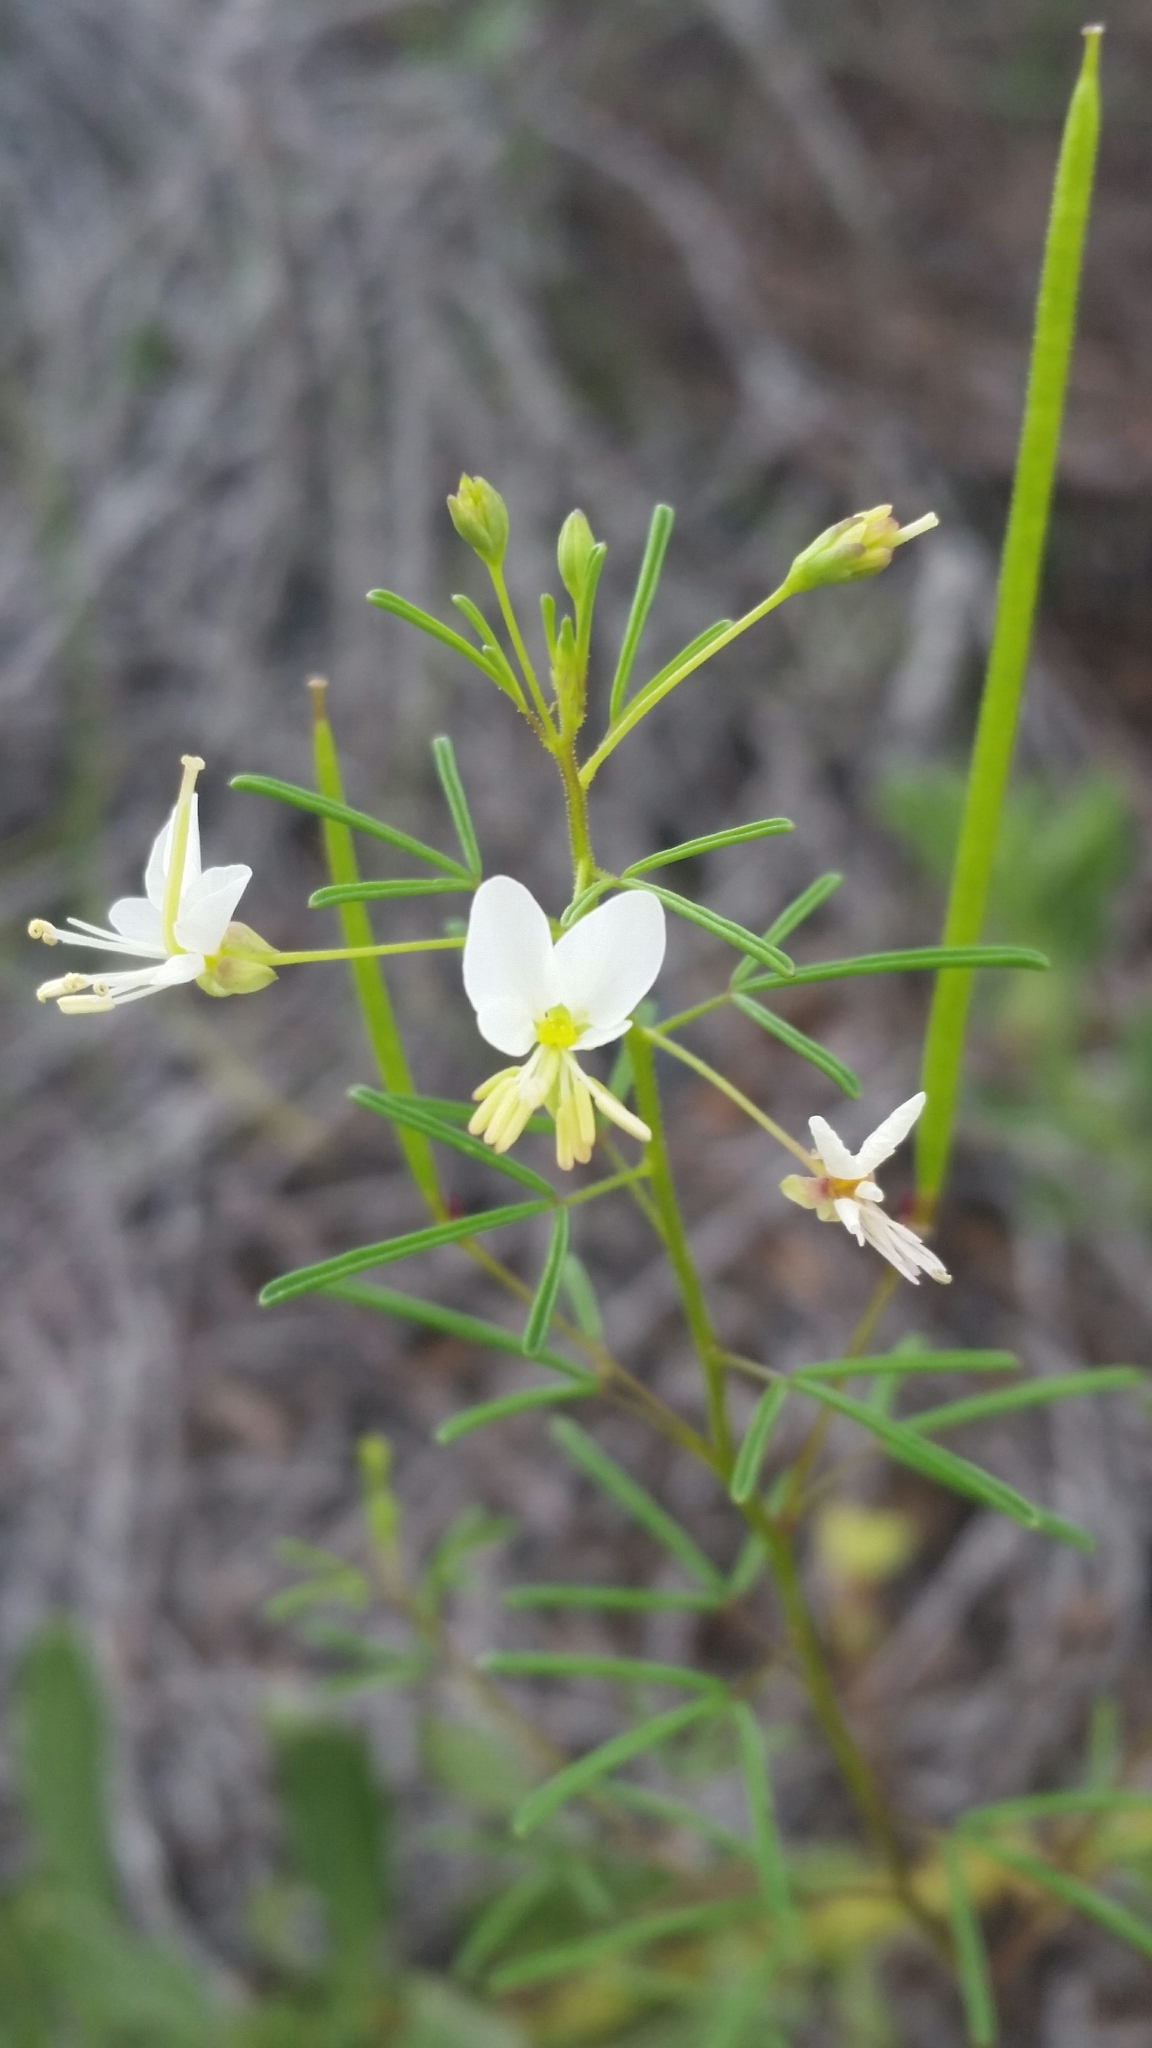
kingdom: Plantae
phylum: Tracheophyta
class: Magnoliopsida
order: Brassicales
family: Cleomaceae
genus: Polanisia
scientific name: Polanisia tenuifolia
